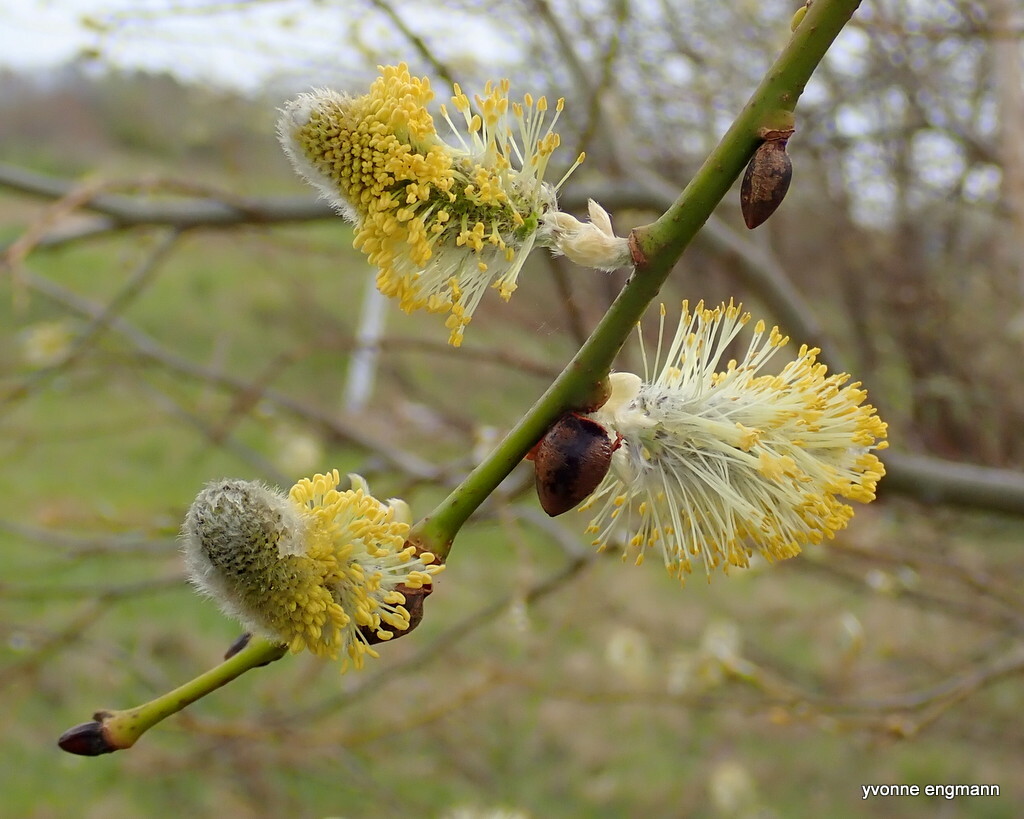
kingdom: Plantae
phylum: Tracheophyta
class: Magnoliopsida
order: Malpighiales
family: Salicaceae
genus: Salix
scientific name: Salix caprea
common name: Goat willow
